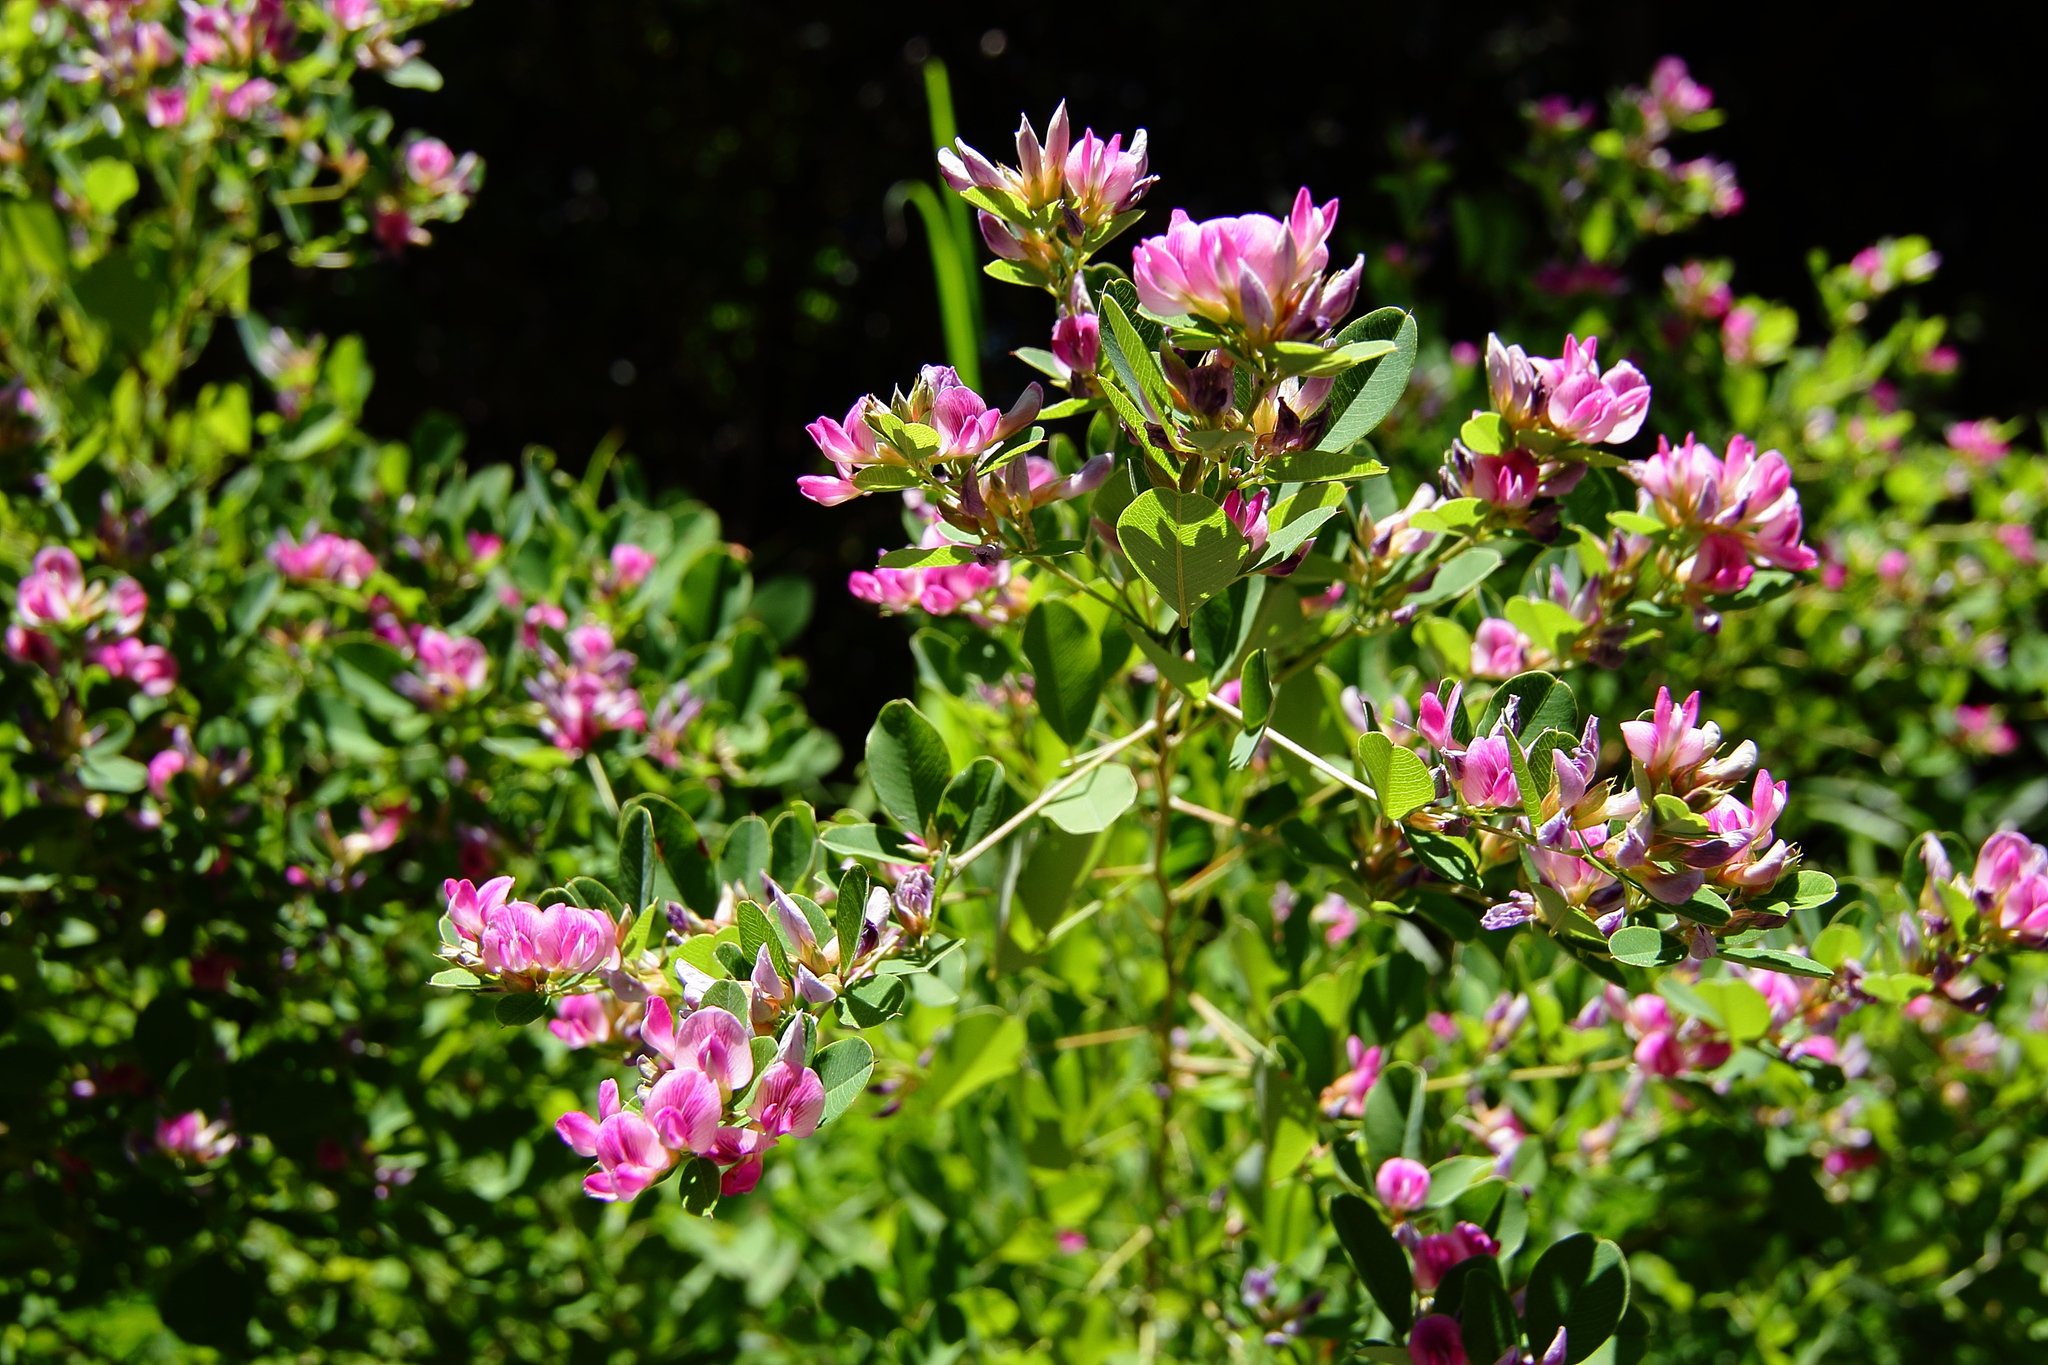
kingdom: Plantae
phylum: Tracheophyta
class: Magnoliopsida
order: Fabales
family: Fabaceae
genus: Lespedeza
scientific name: Lespedeza cyrtobotrya
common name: Leafy lespedeza
